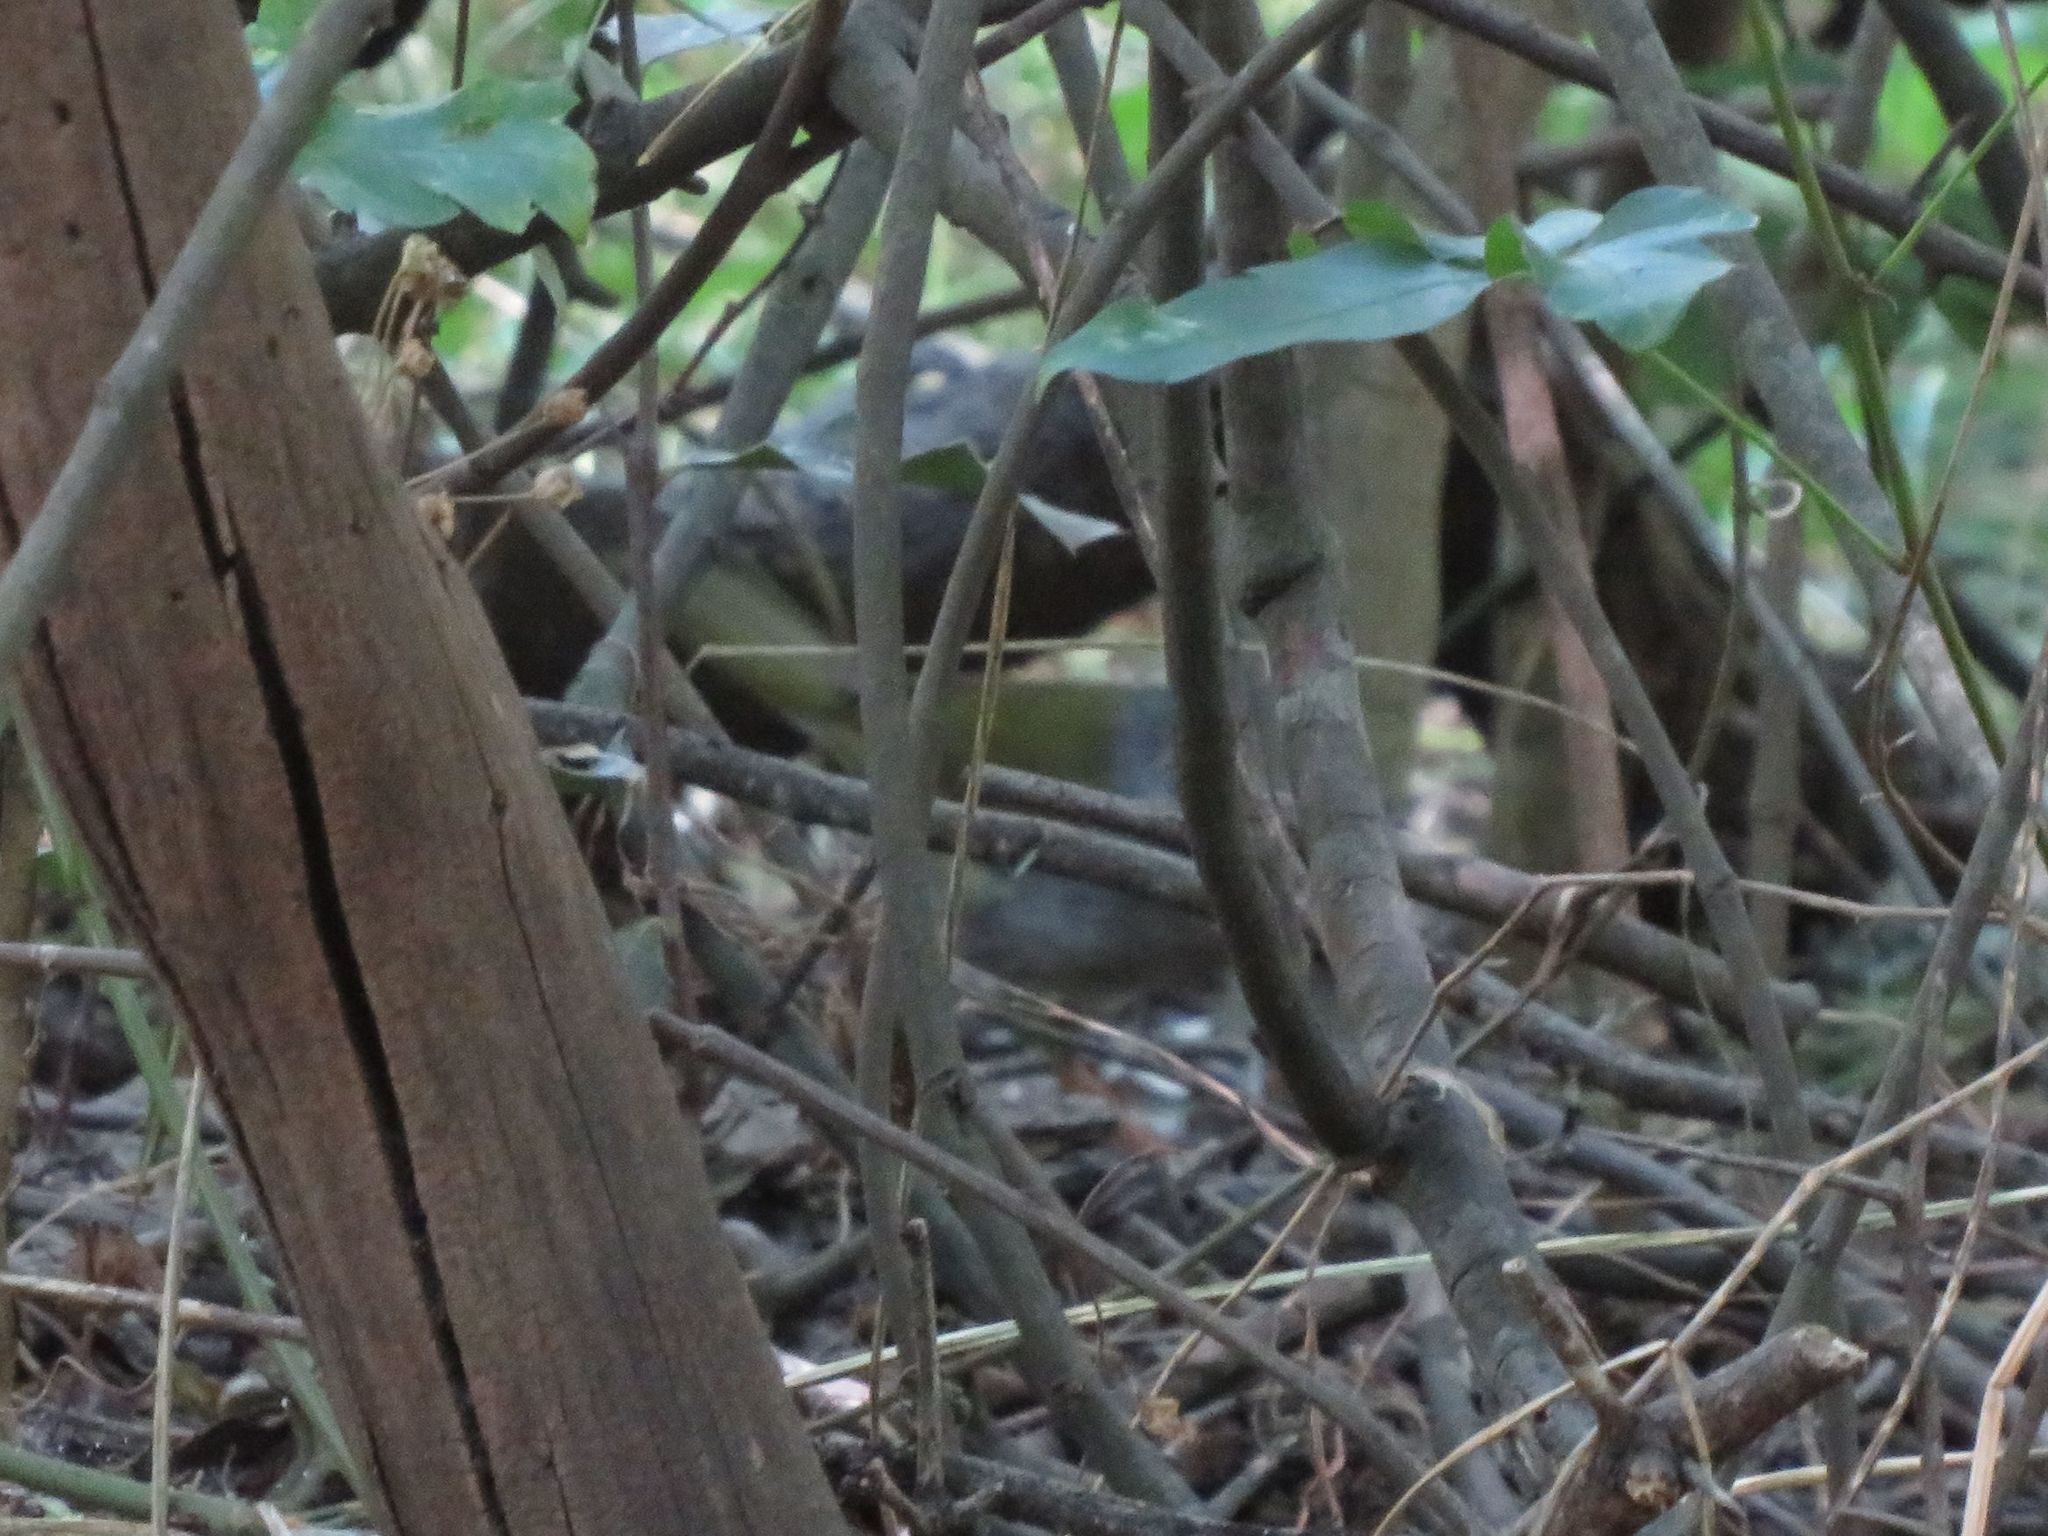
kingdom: Animalia
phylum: Chordata
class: Aves
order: Passeriformes
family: Parulidae
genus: Myiothlypis
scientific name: Myiothlypis leucoblephara
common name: White-rimmed warbler
